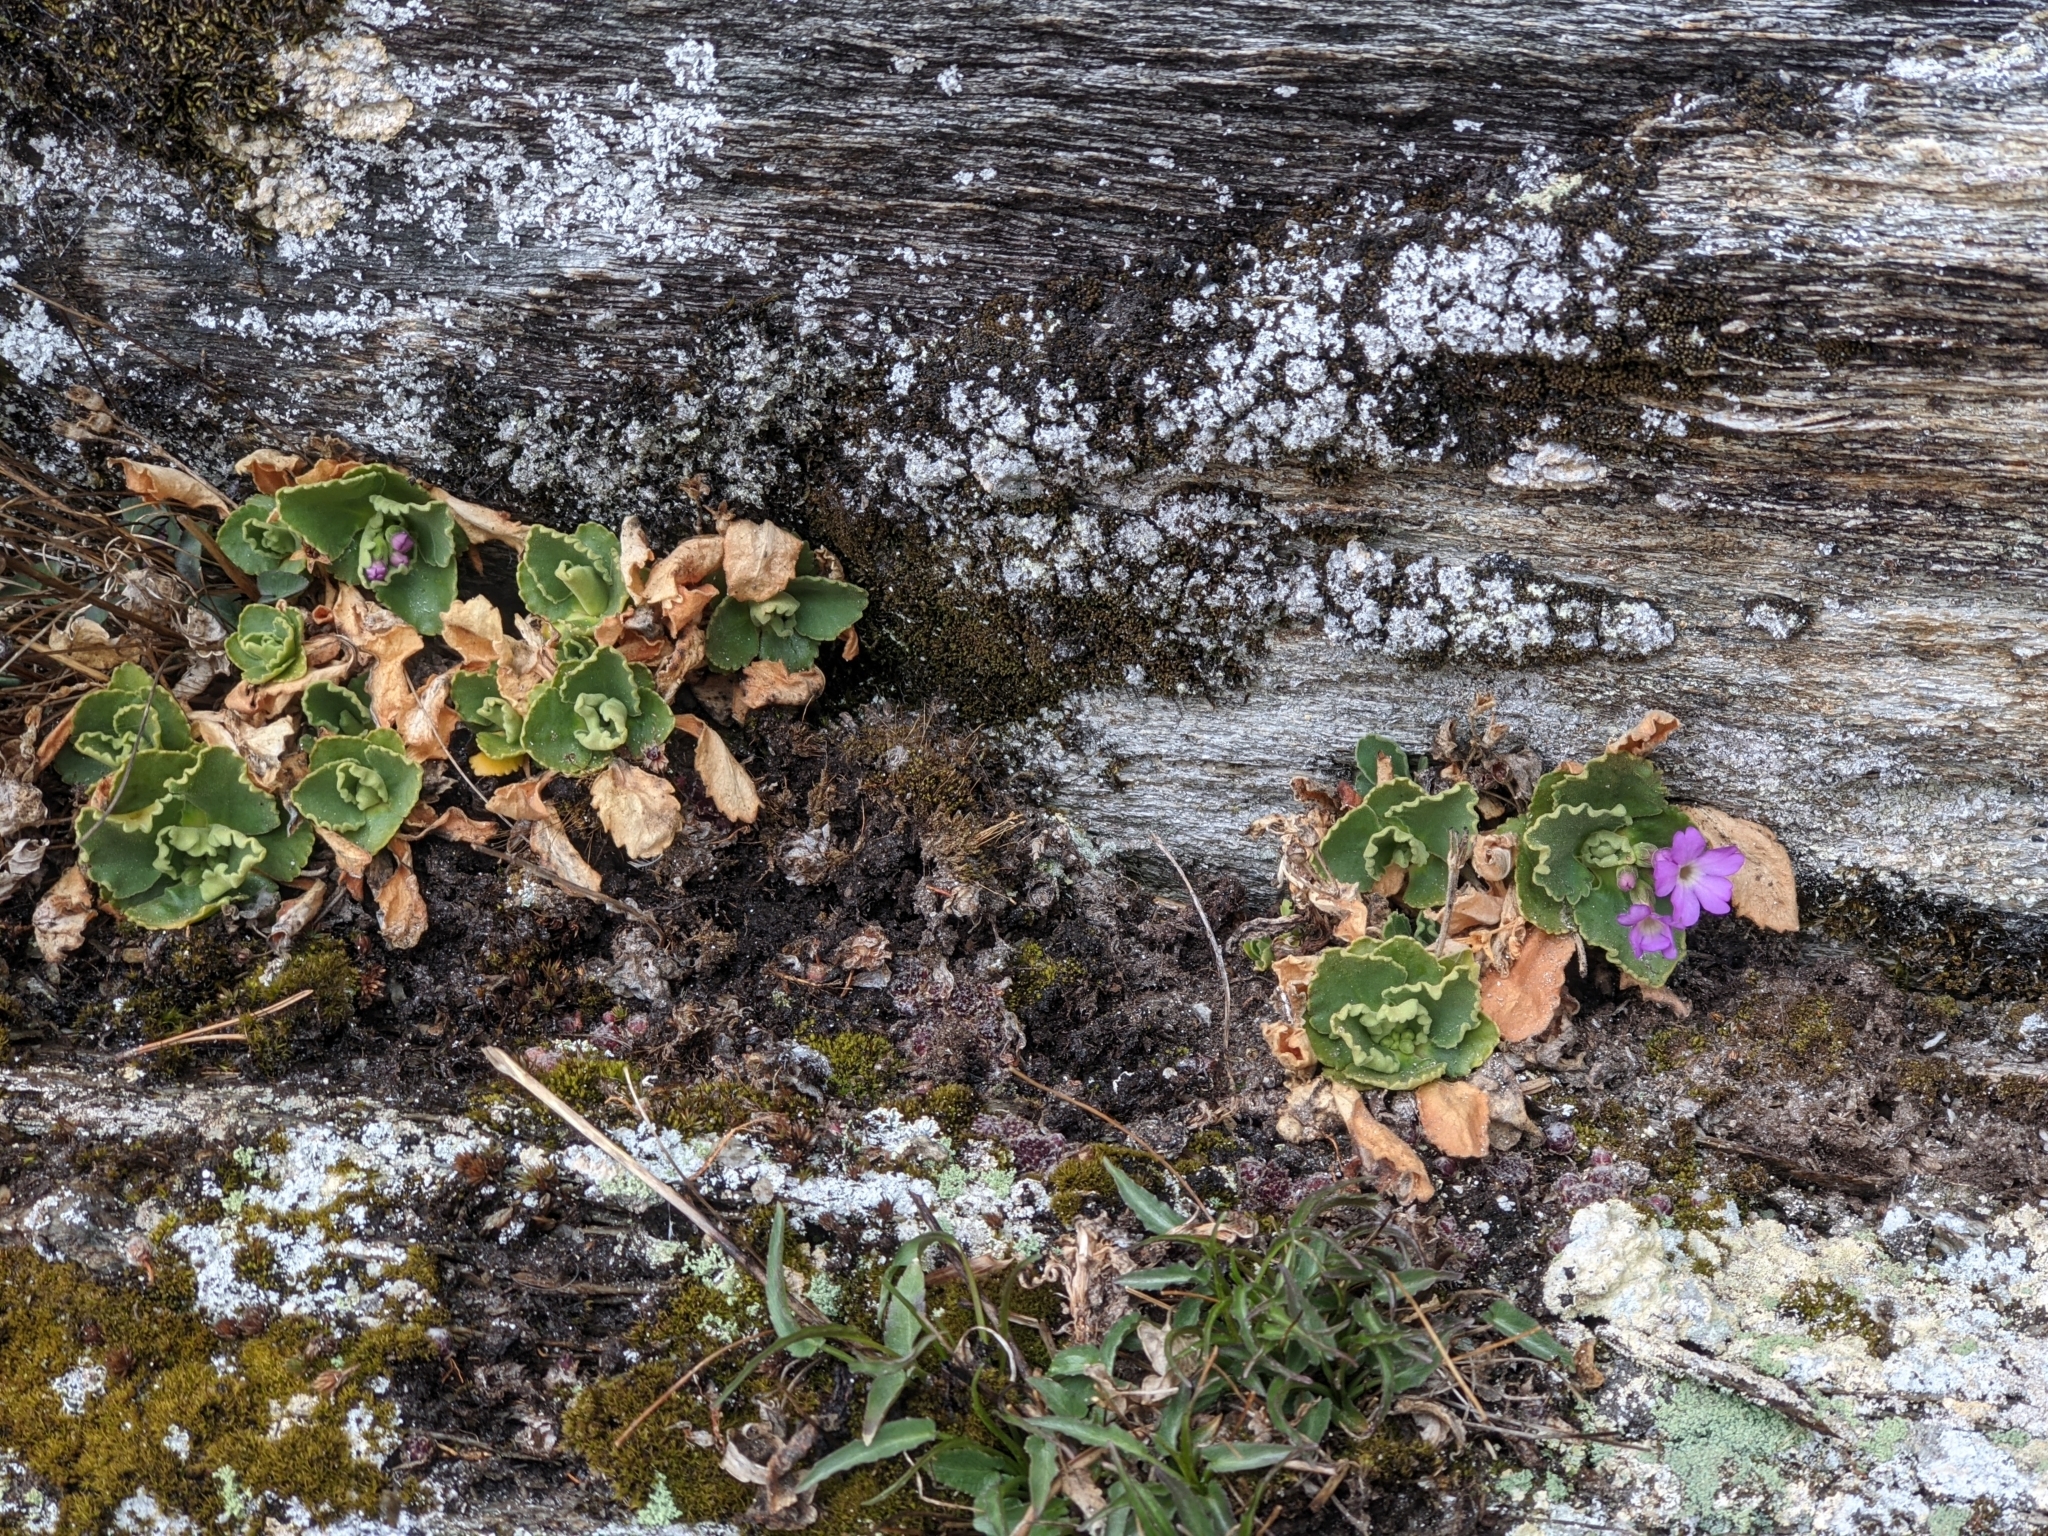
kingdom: Plantae
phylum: Tracheophyta
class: Magnoliopsida
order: Ericales
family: Primulaceae
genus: Primula
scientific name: Primula hirsuta
